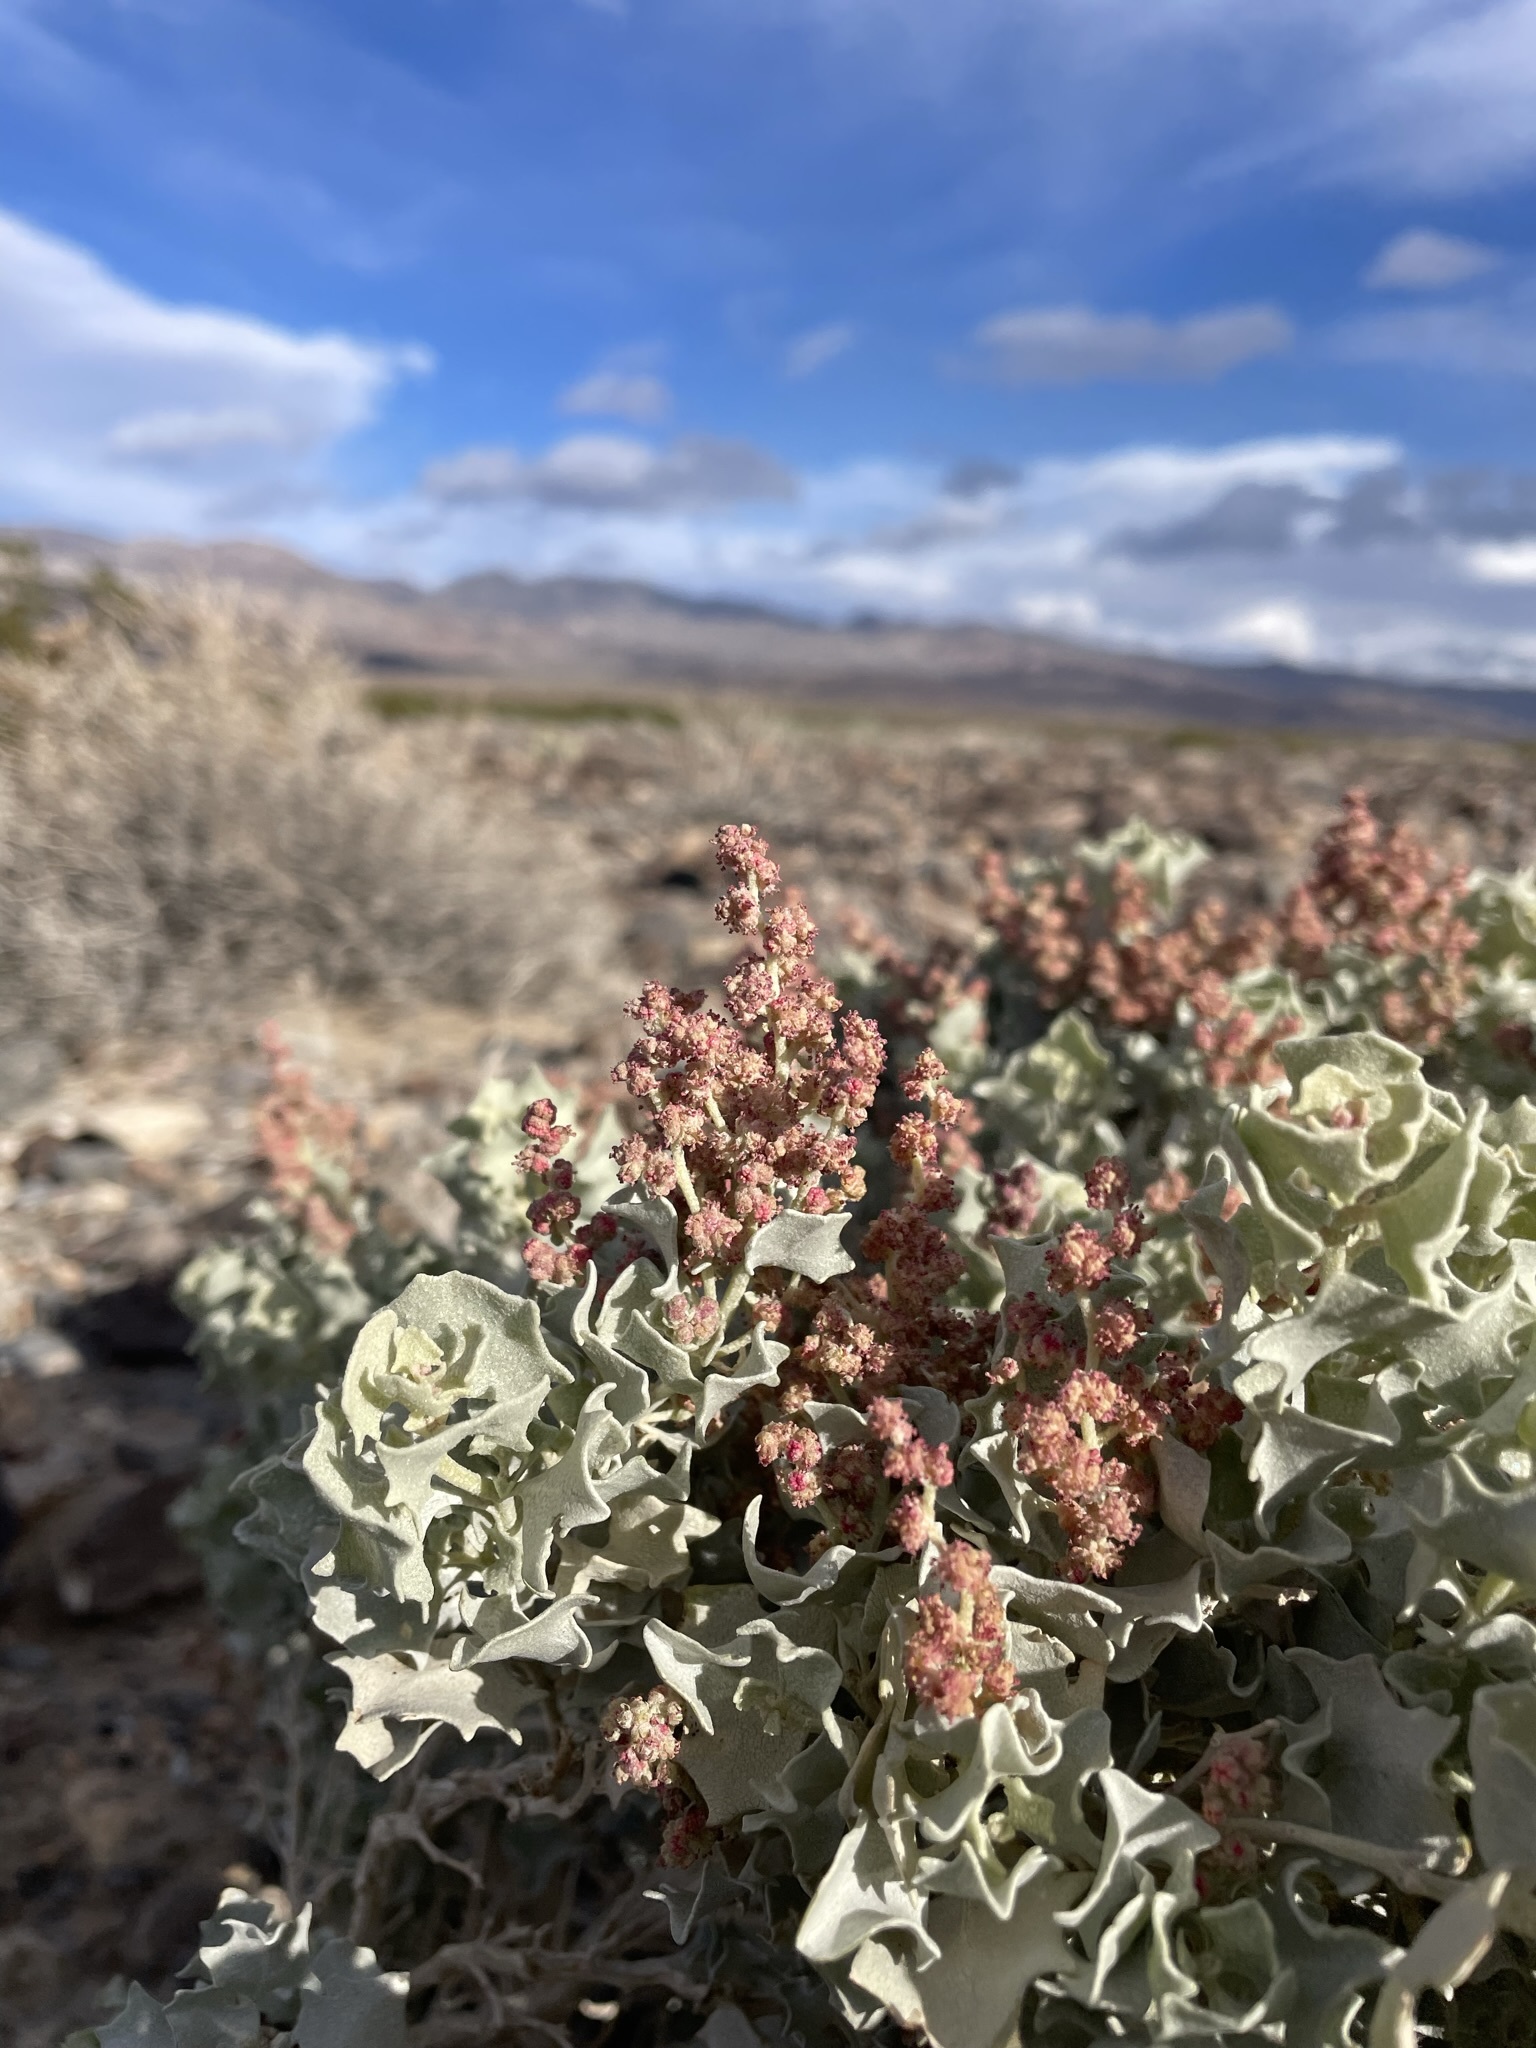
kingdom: Plantae
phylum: Tracheophyta
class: Magnoliopsida
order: Caryophyllales
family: Amaranthaceae
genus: Atriplex
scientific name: Atriplex hymenelytra
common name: Desert-holly
